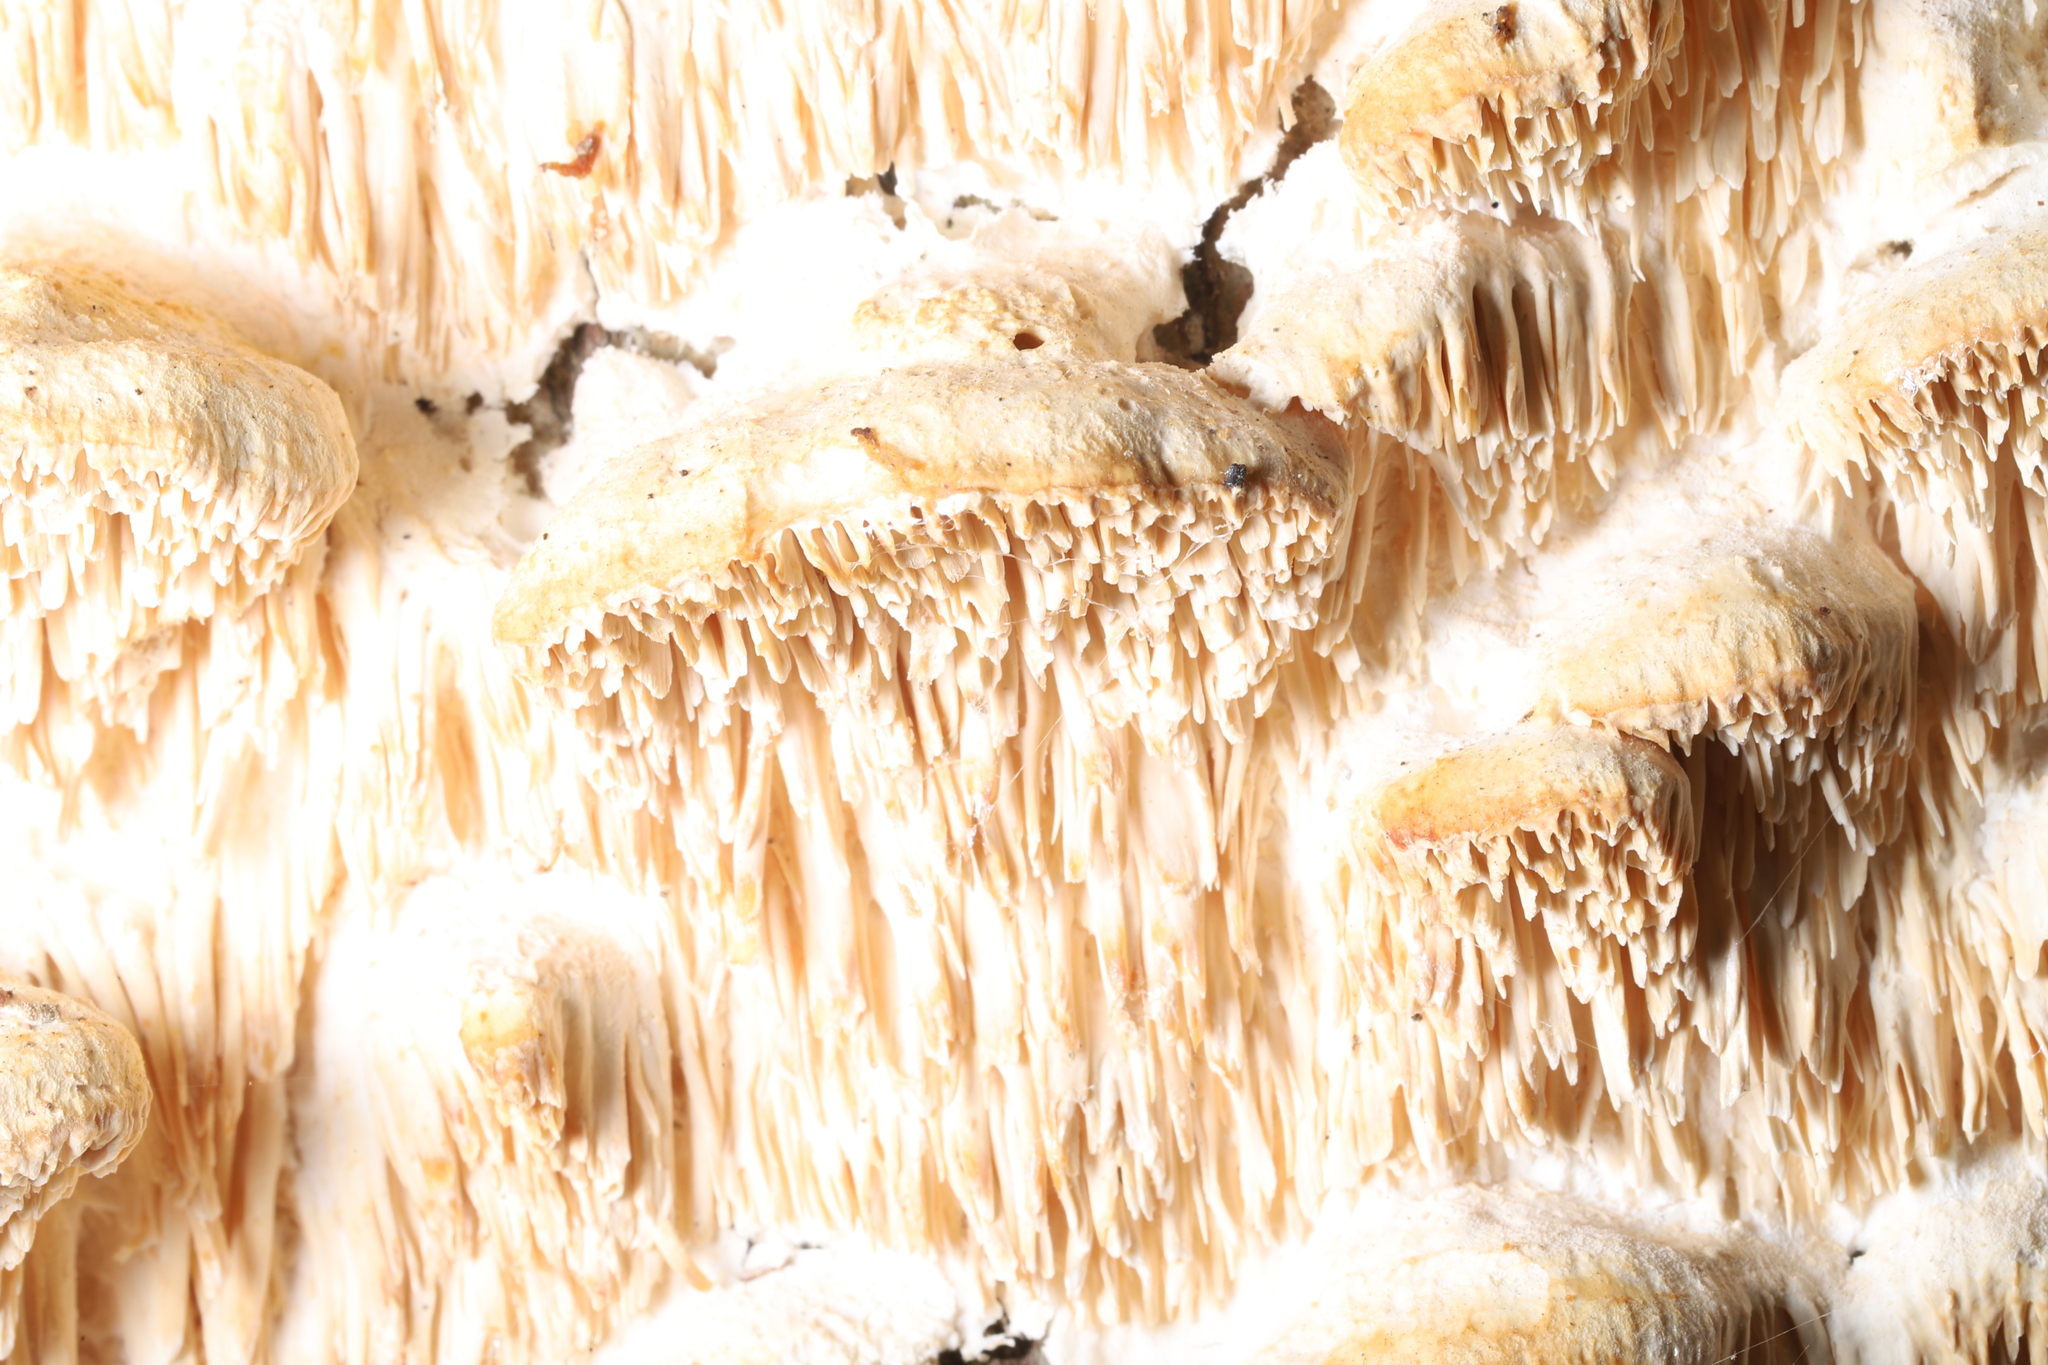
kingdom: Fungi
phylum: Basidiomycota
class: Agaricomycetes
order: Polyporales
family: Meruliaceae
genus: Irpiciporus
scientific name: Irpiciporus pachyodon
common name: Marshmallow polypore
